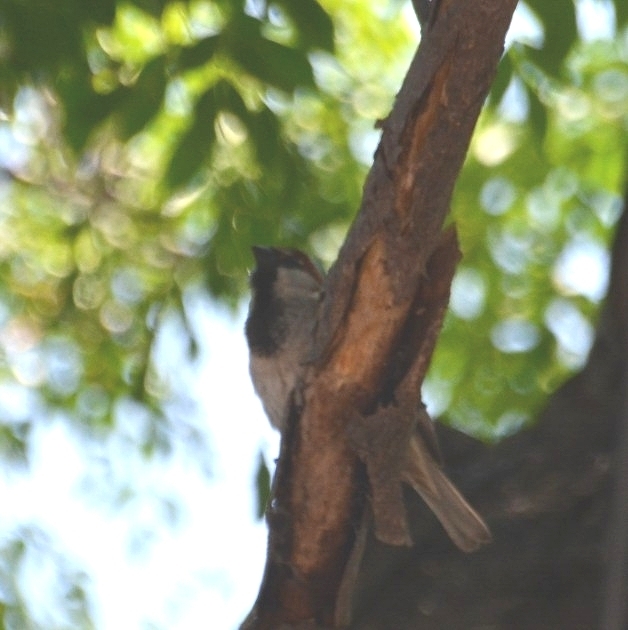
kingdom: Animalia
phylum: Chordata
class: Aves
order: Passeriformes
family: Passeridae
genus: Passer
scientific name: Passer domesticus
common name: House sparrow
